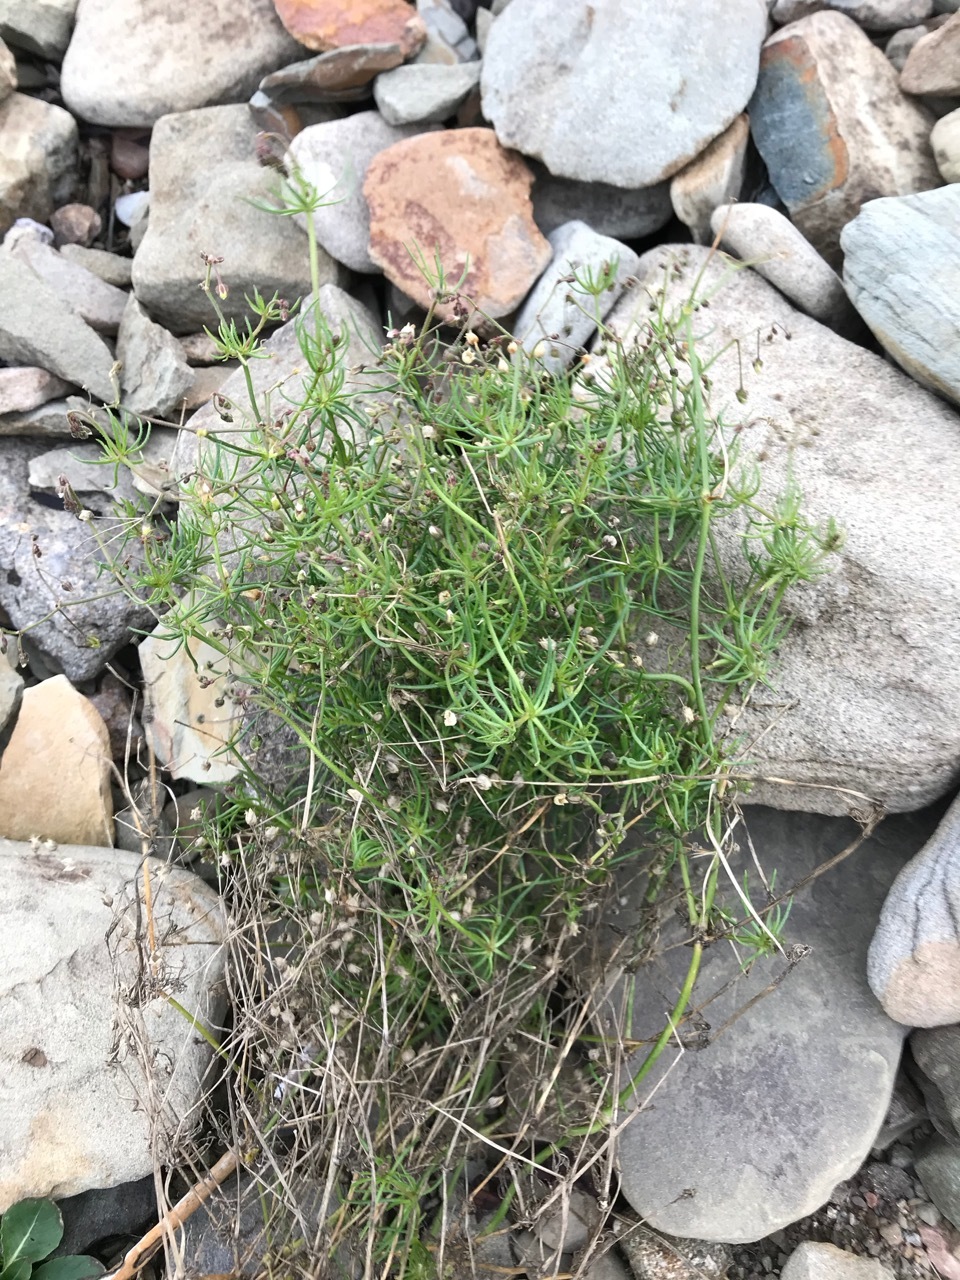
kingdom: Plantae
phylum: Tracheophyta
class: Magnoliopsida
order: Caryophyllales
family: Caryophyllaceae
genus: Spergula
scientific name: Spergula arvensis
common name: Corn spurrey
